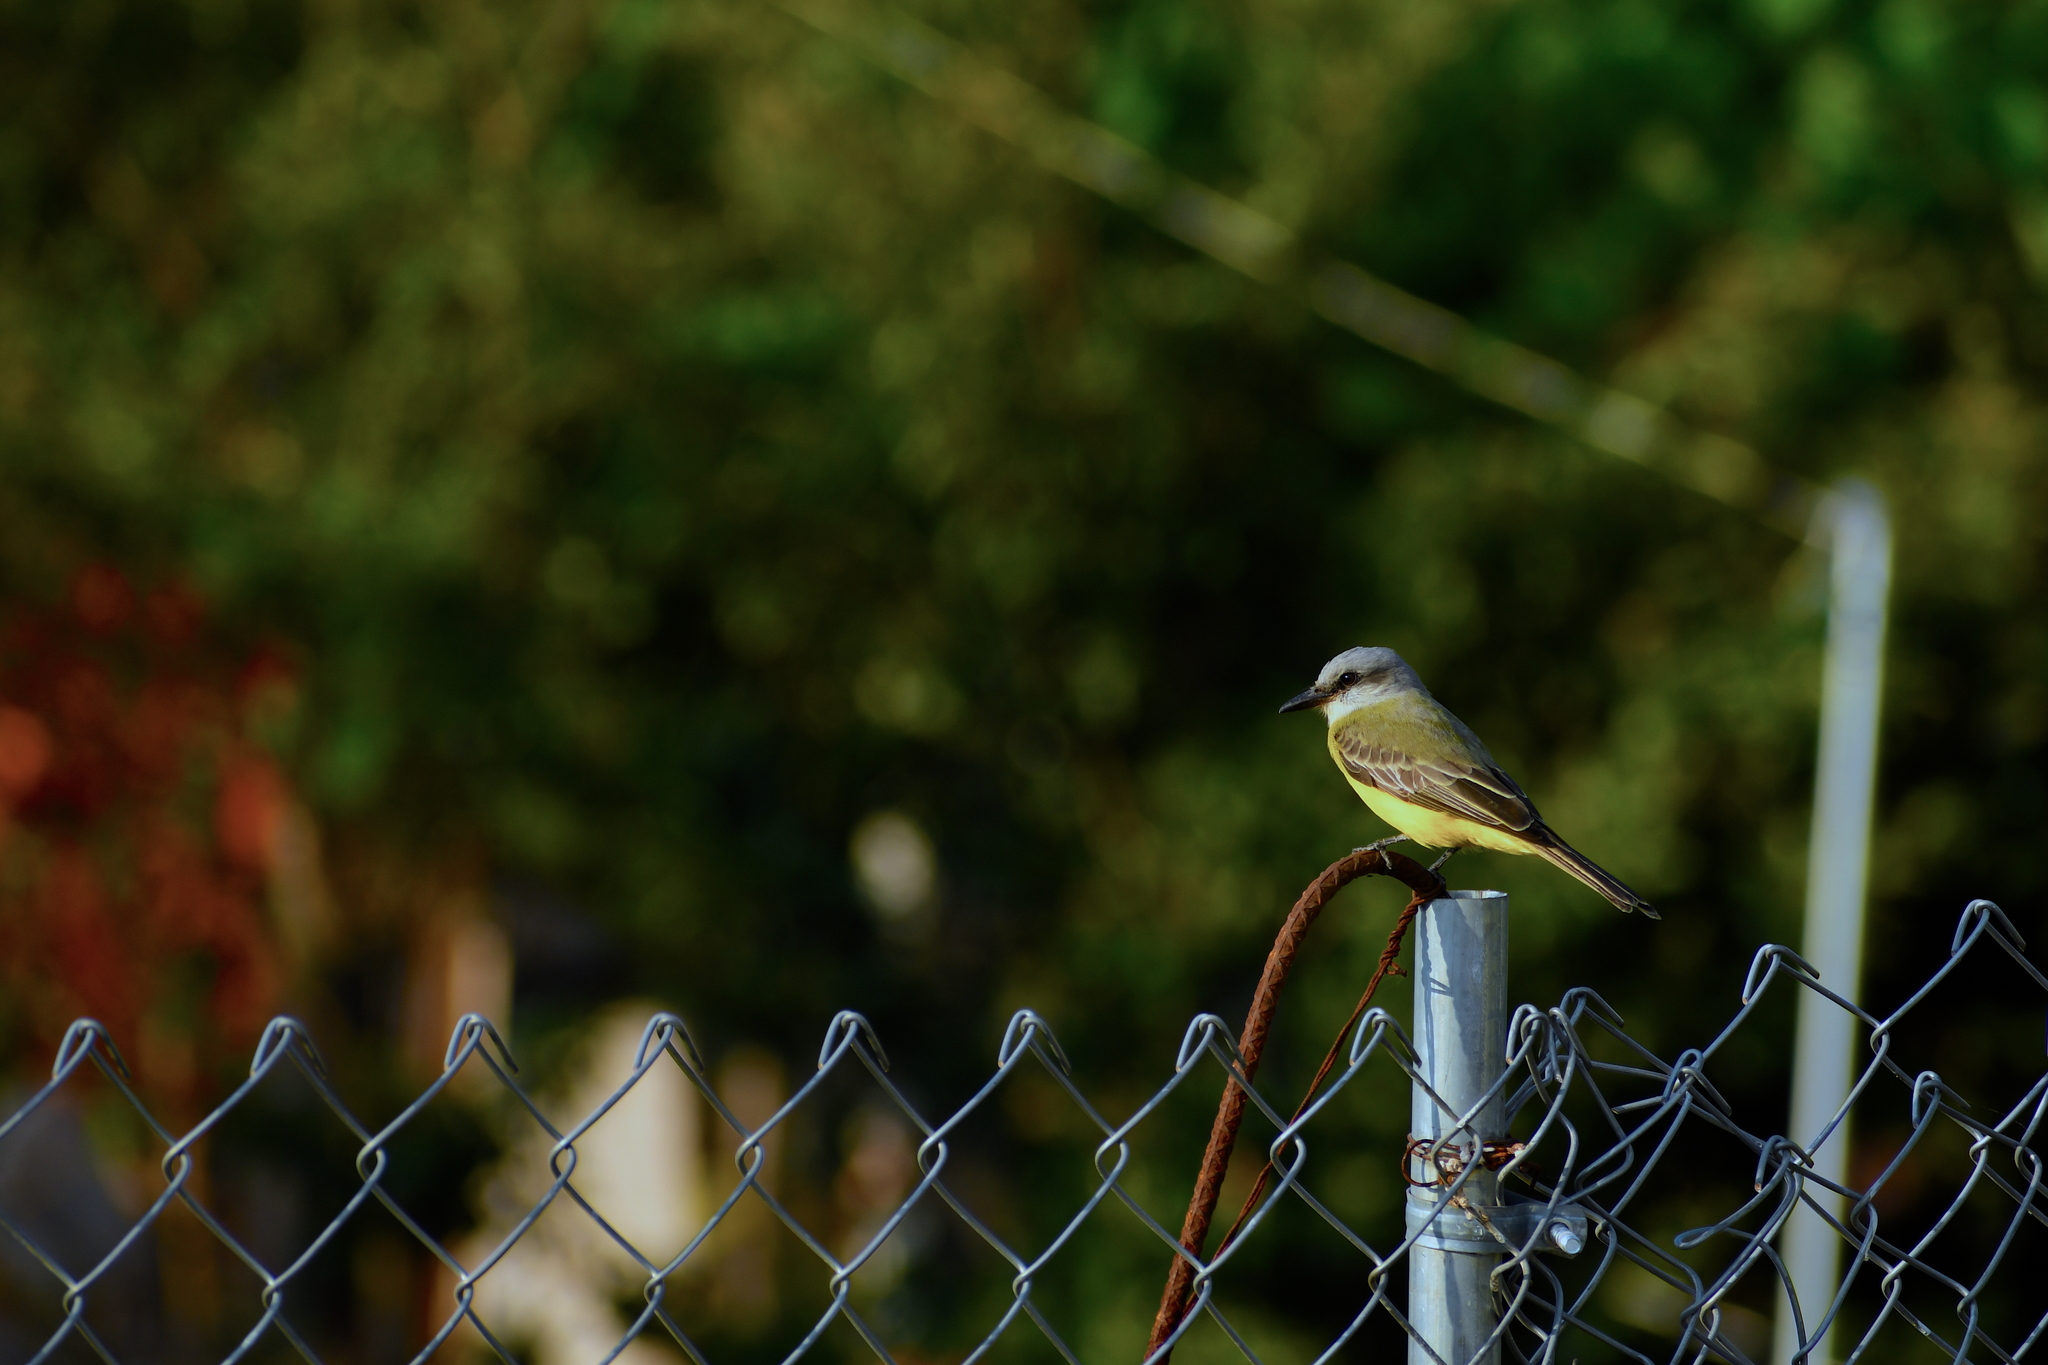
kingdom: Animalia
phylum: Chordata
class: Aves
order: Passeriformes
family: Tyrannidae
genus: Tyrannus
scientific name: Tyrannus melancholicus
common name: Tropical kingbird
